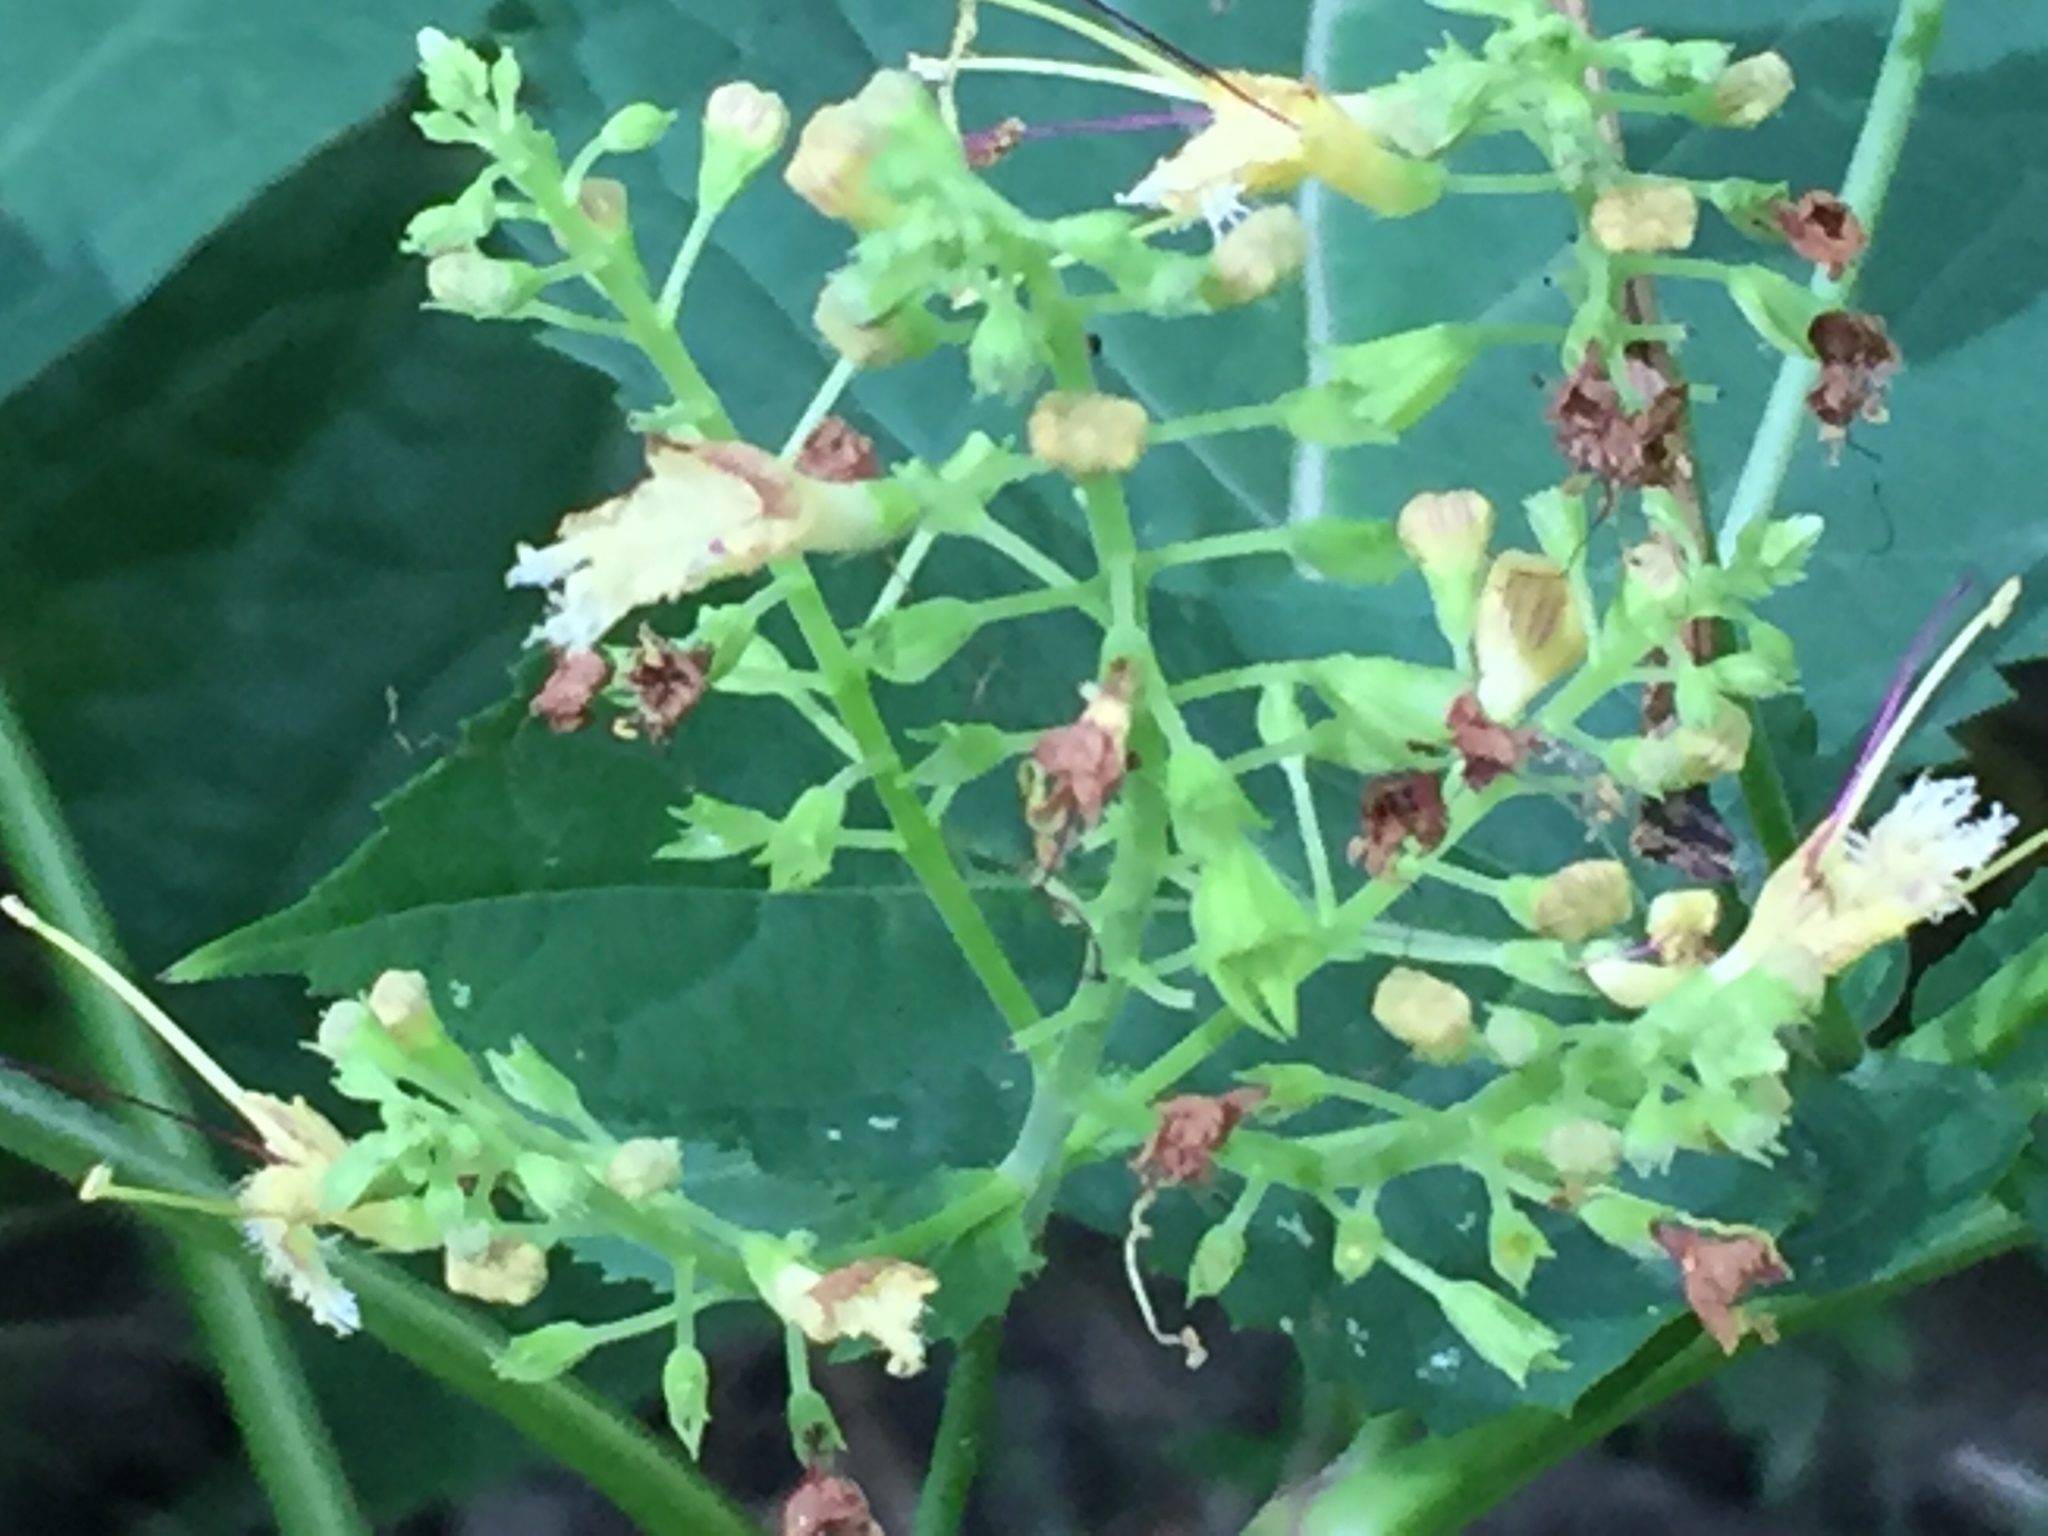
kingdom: Plantae
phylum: Tracheophyta
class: Magnoliopsida
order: Lamiales
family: Lamiaceae
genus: Collinsonia
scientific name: Collinsonia canadensis
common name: Northern horsebalm
